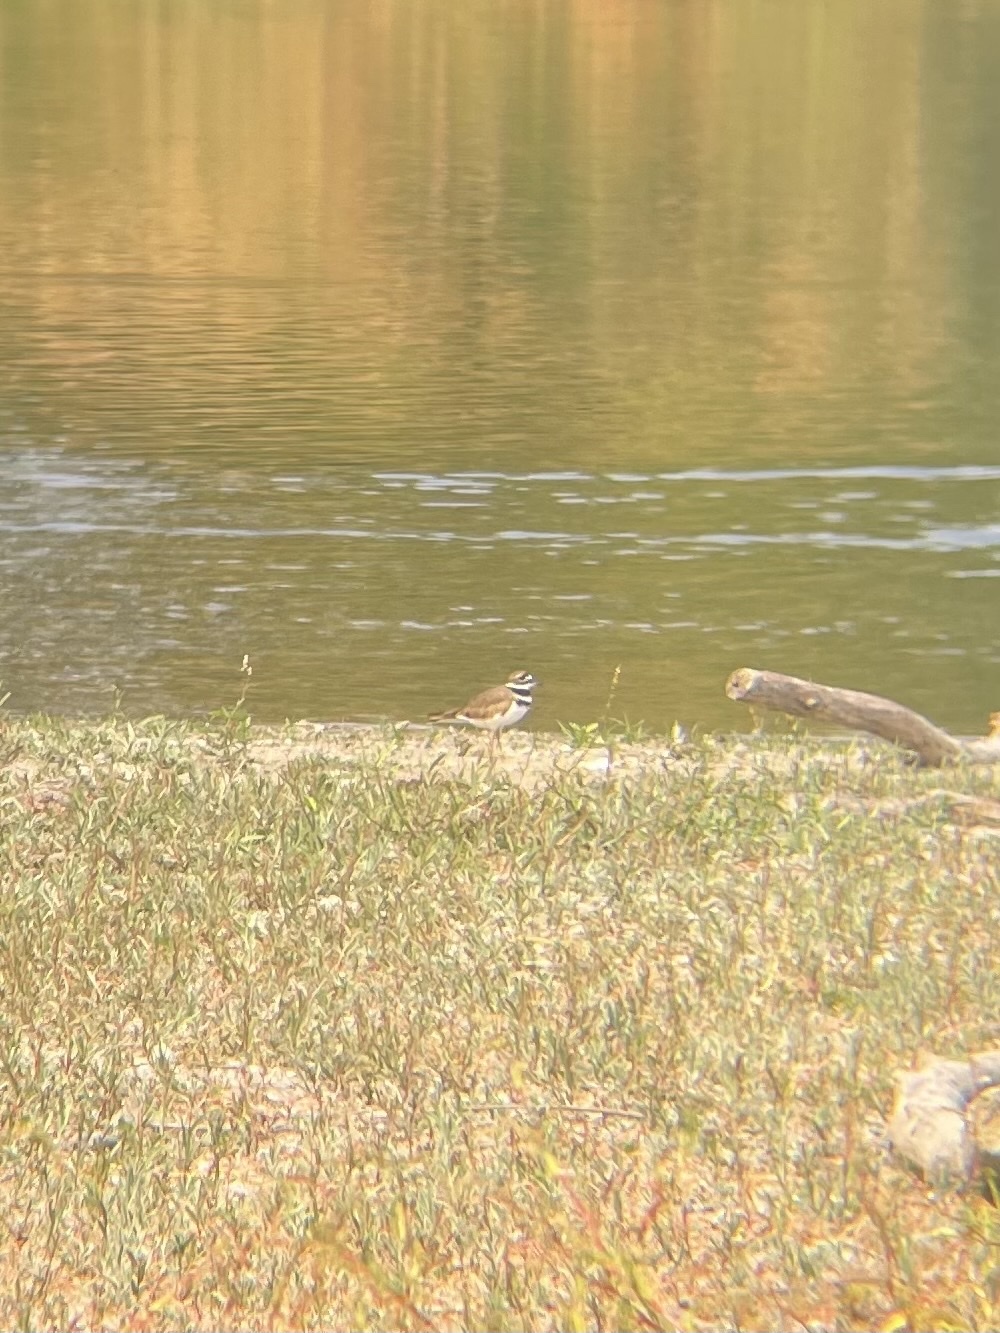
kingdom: Animalia
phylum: Chordata
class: Aves
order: Charadriiformes
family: Charadriidae
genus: Charadrius
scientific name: Charadrius vociferus
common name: Killdeer
